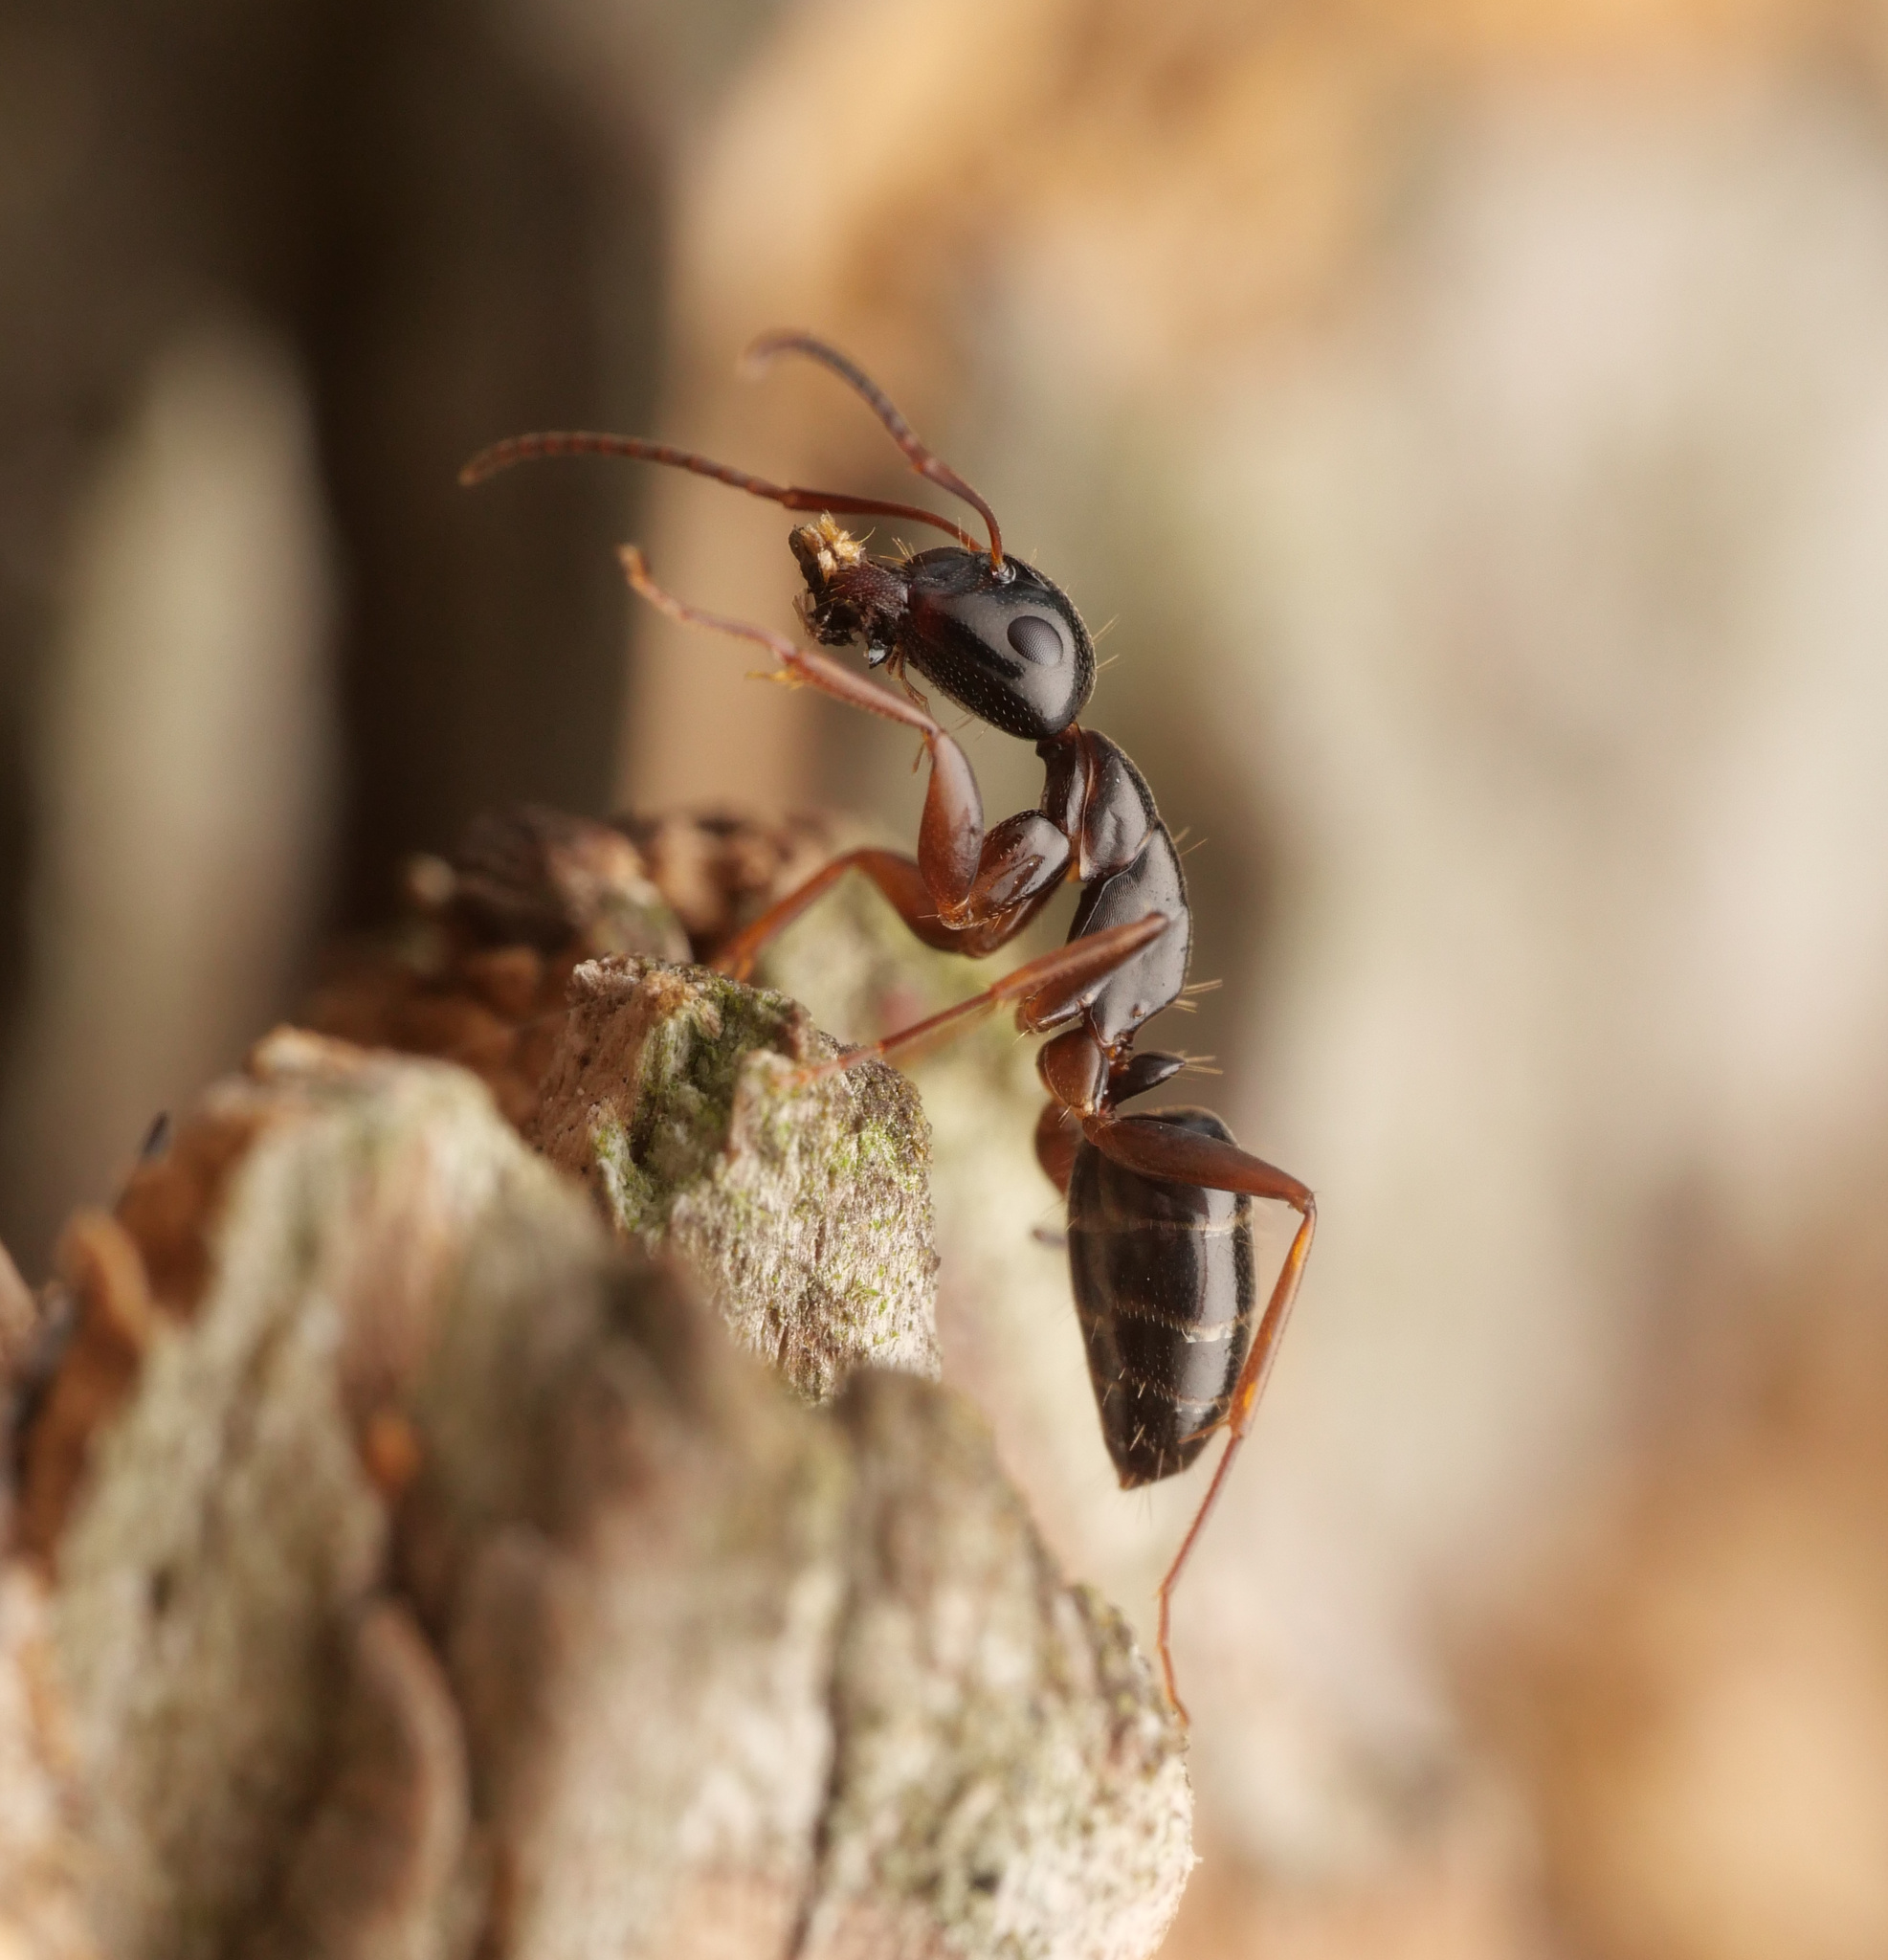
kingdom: Animalia
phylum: Arthropoda
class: Insecta
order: Hymenoptera
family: Formicidae
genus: Camponotus
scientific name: Camponotus fallax
